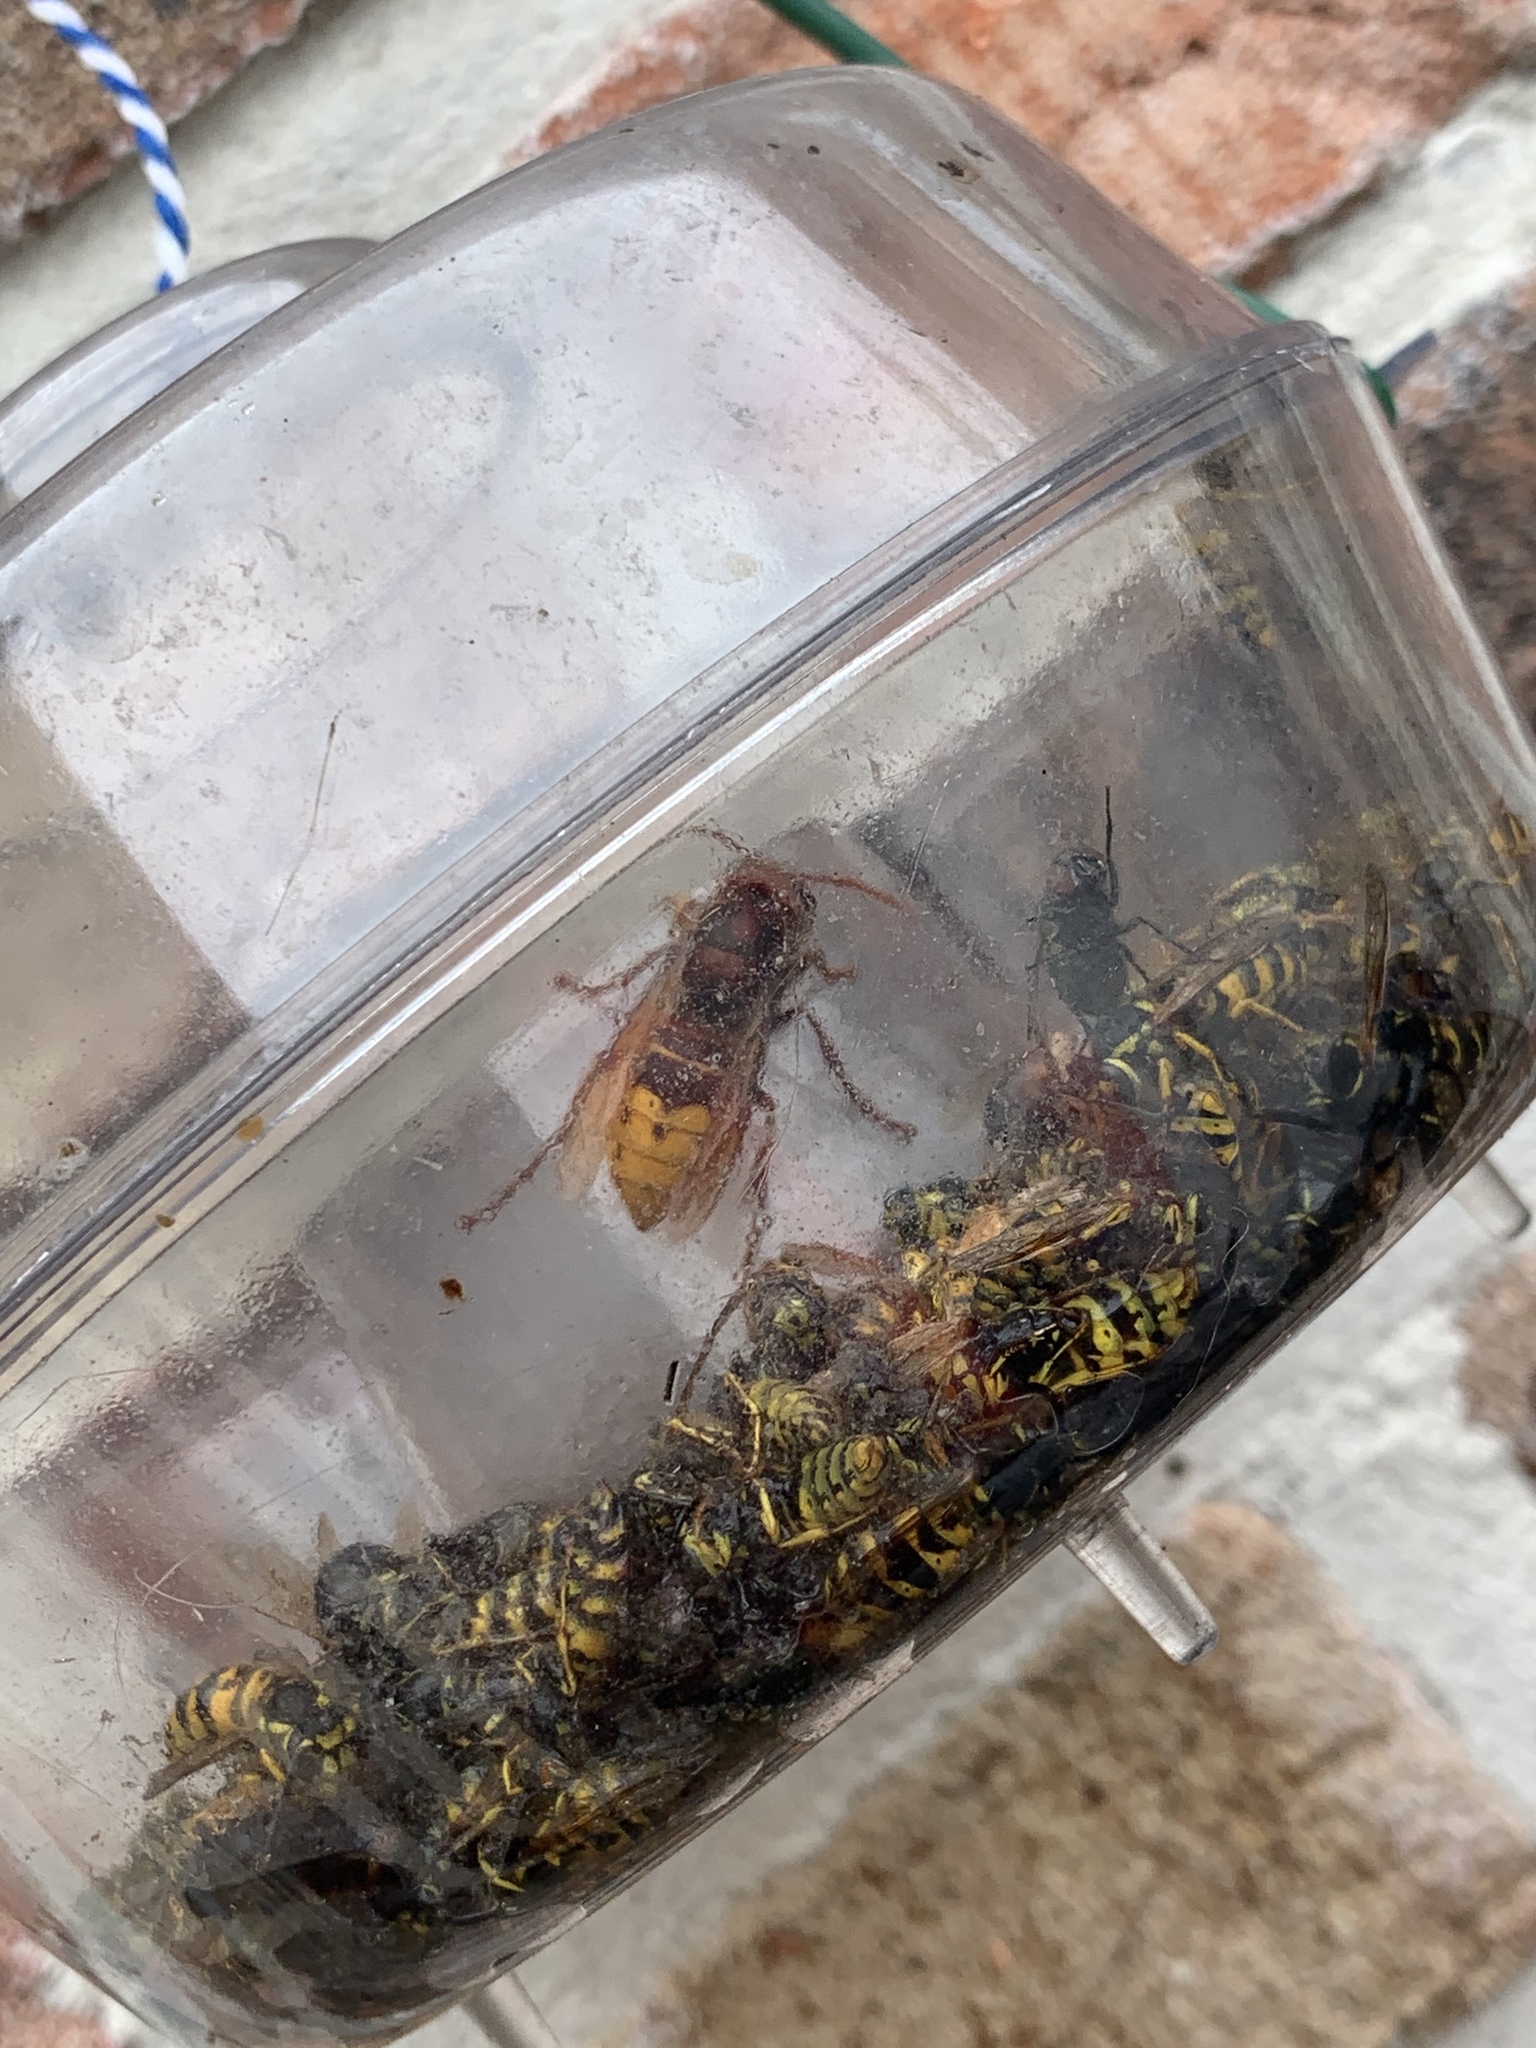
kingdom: Animalia
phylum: Arthropoda
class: Insecta
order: Hymenoptera
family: Vespidae
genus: Vespa
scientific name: Vespa crabro
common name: Hornet
